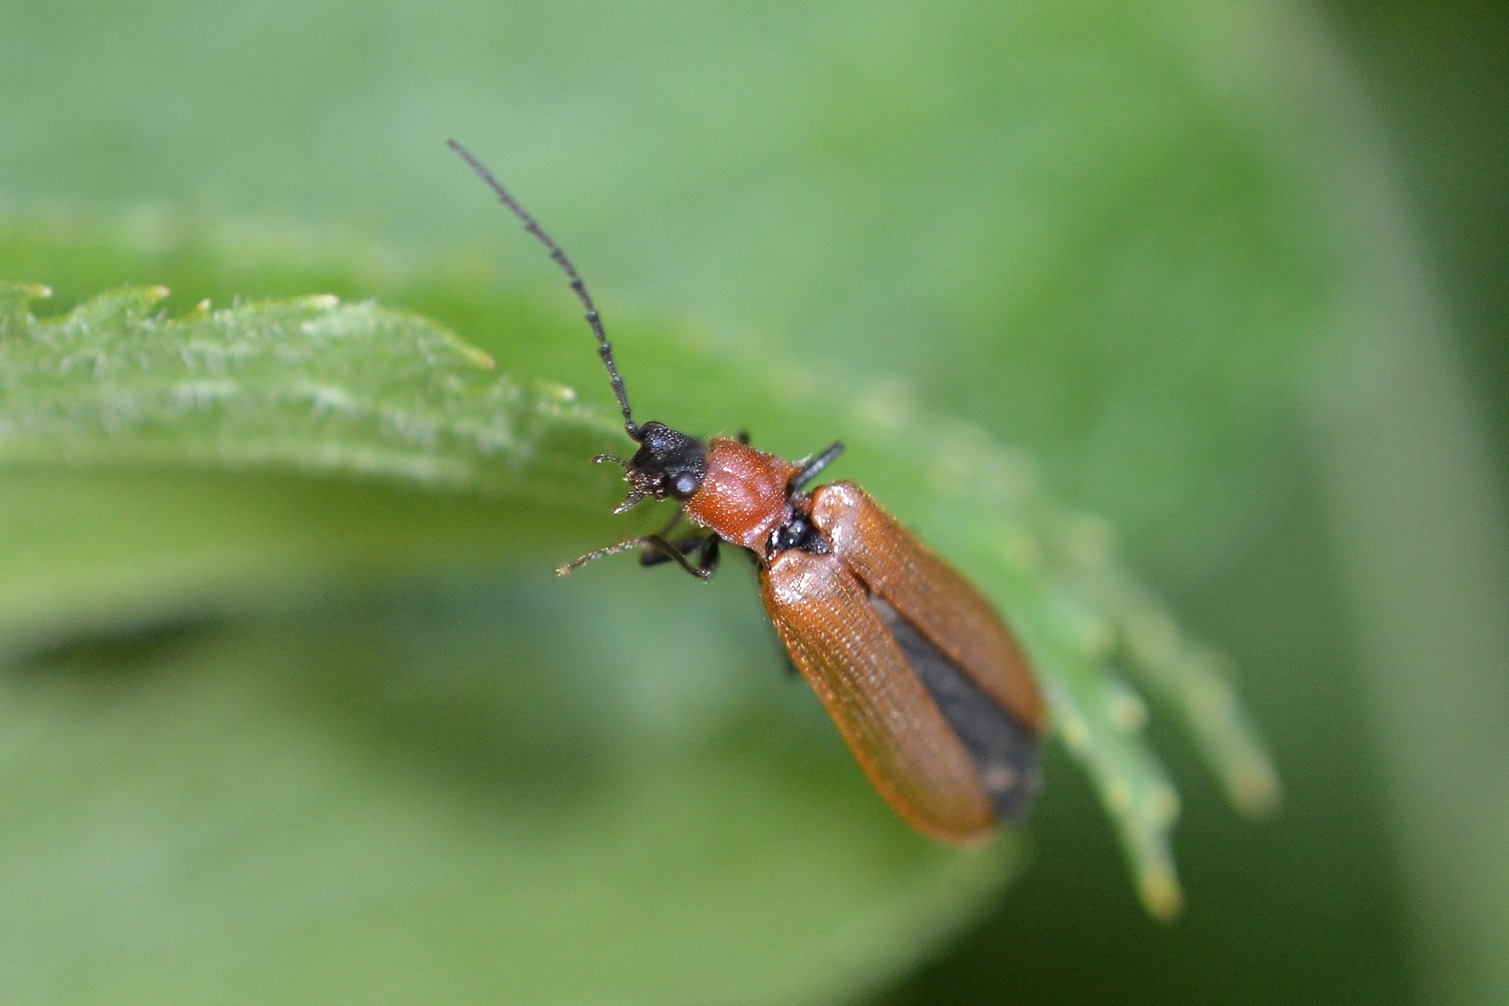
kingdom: Animalia
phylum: Arthropoda
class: Insecta
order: Coleoptera
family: Elateridae
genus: Denticollis
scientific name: Denticollis linearis
